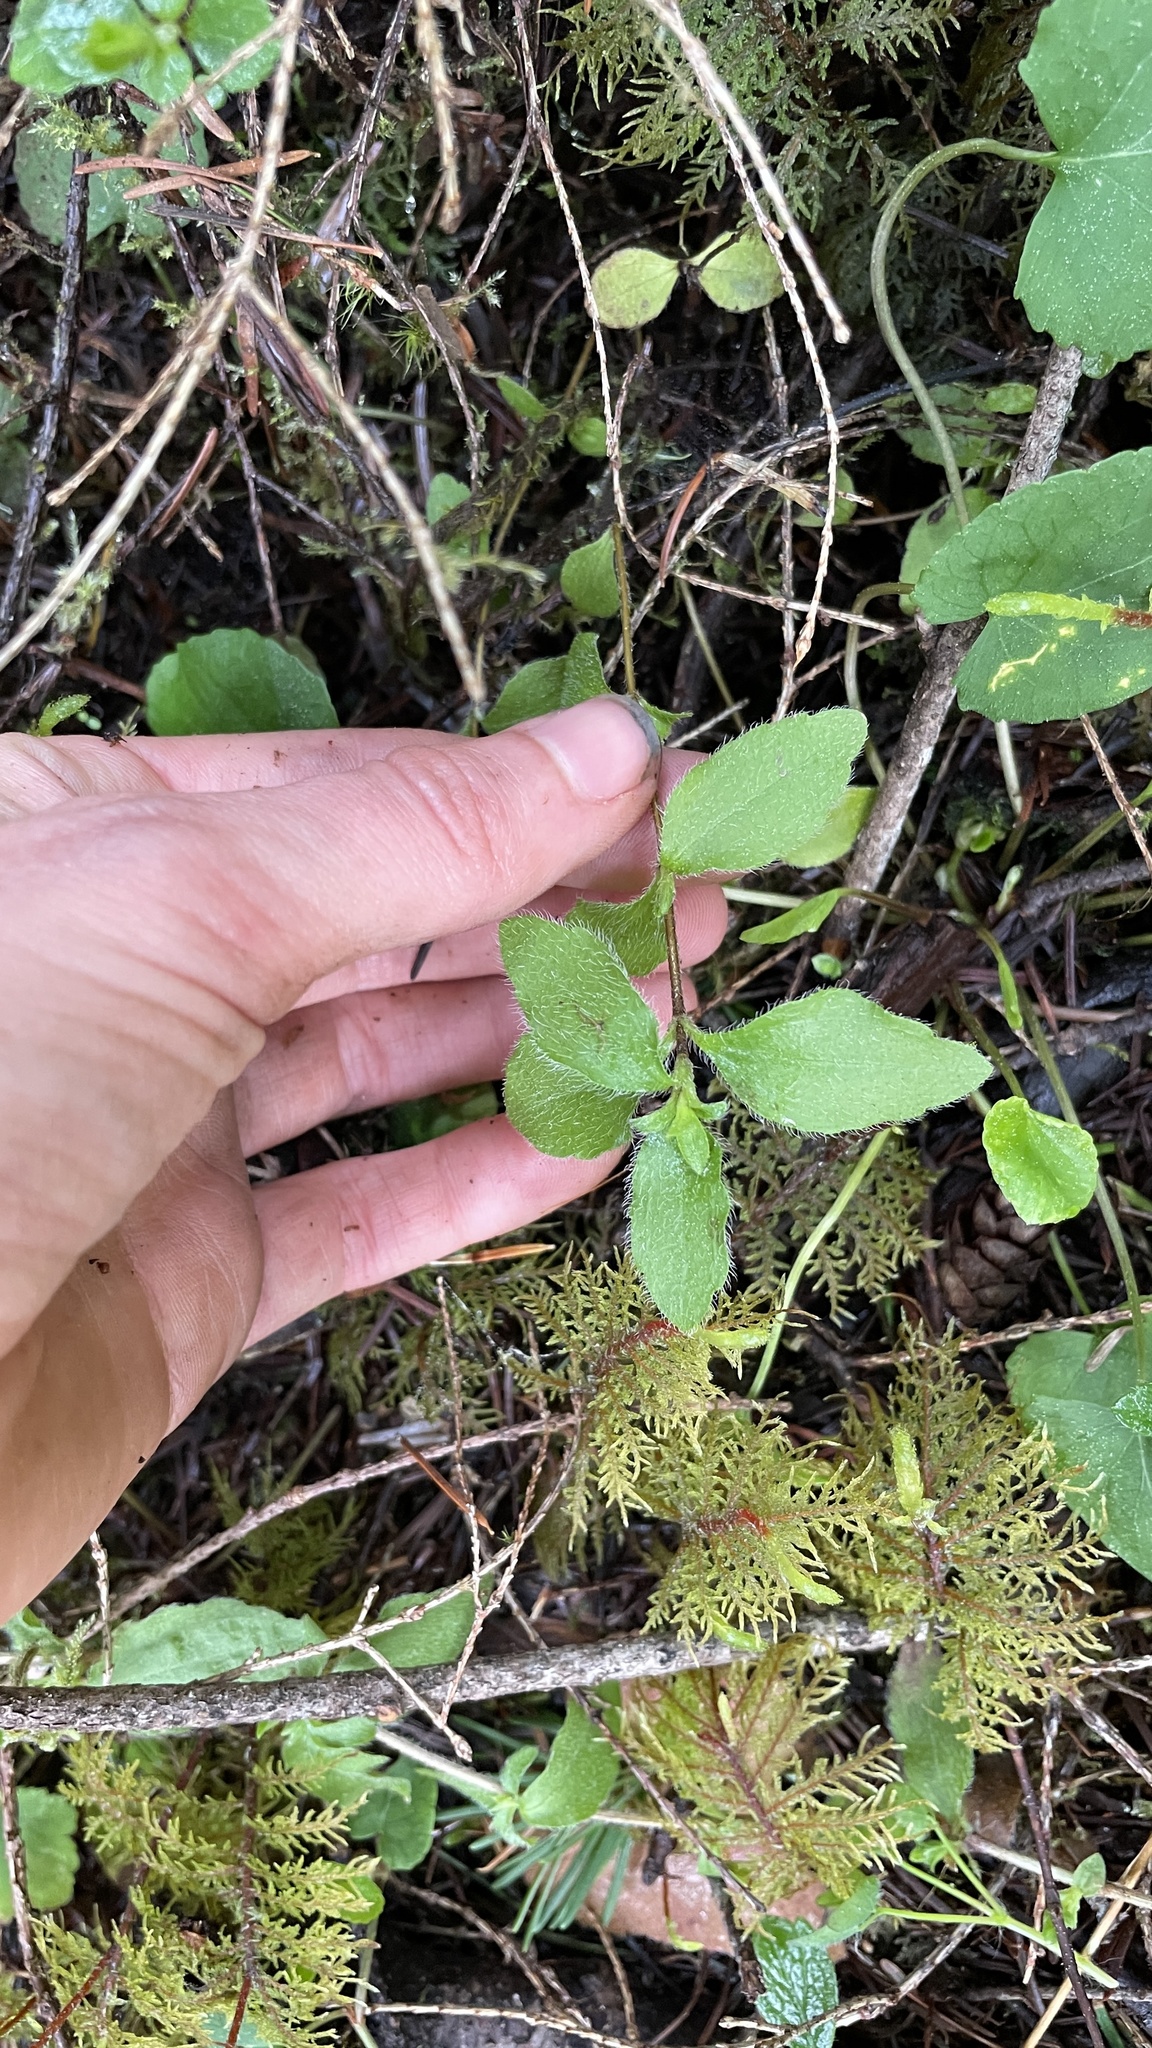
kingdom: Plantae
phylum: Tracheophyta
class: Magnoliopsida
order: Cornales
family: Hydrangeaceae
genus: Whipplea
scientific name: Whipplea modesta
